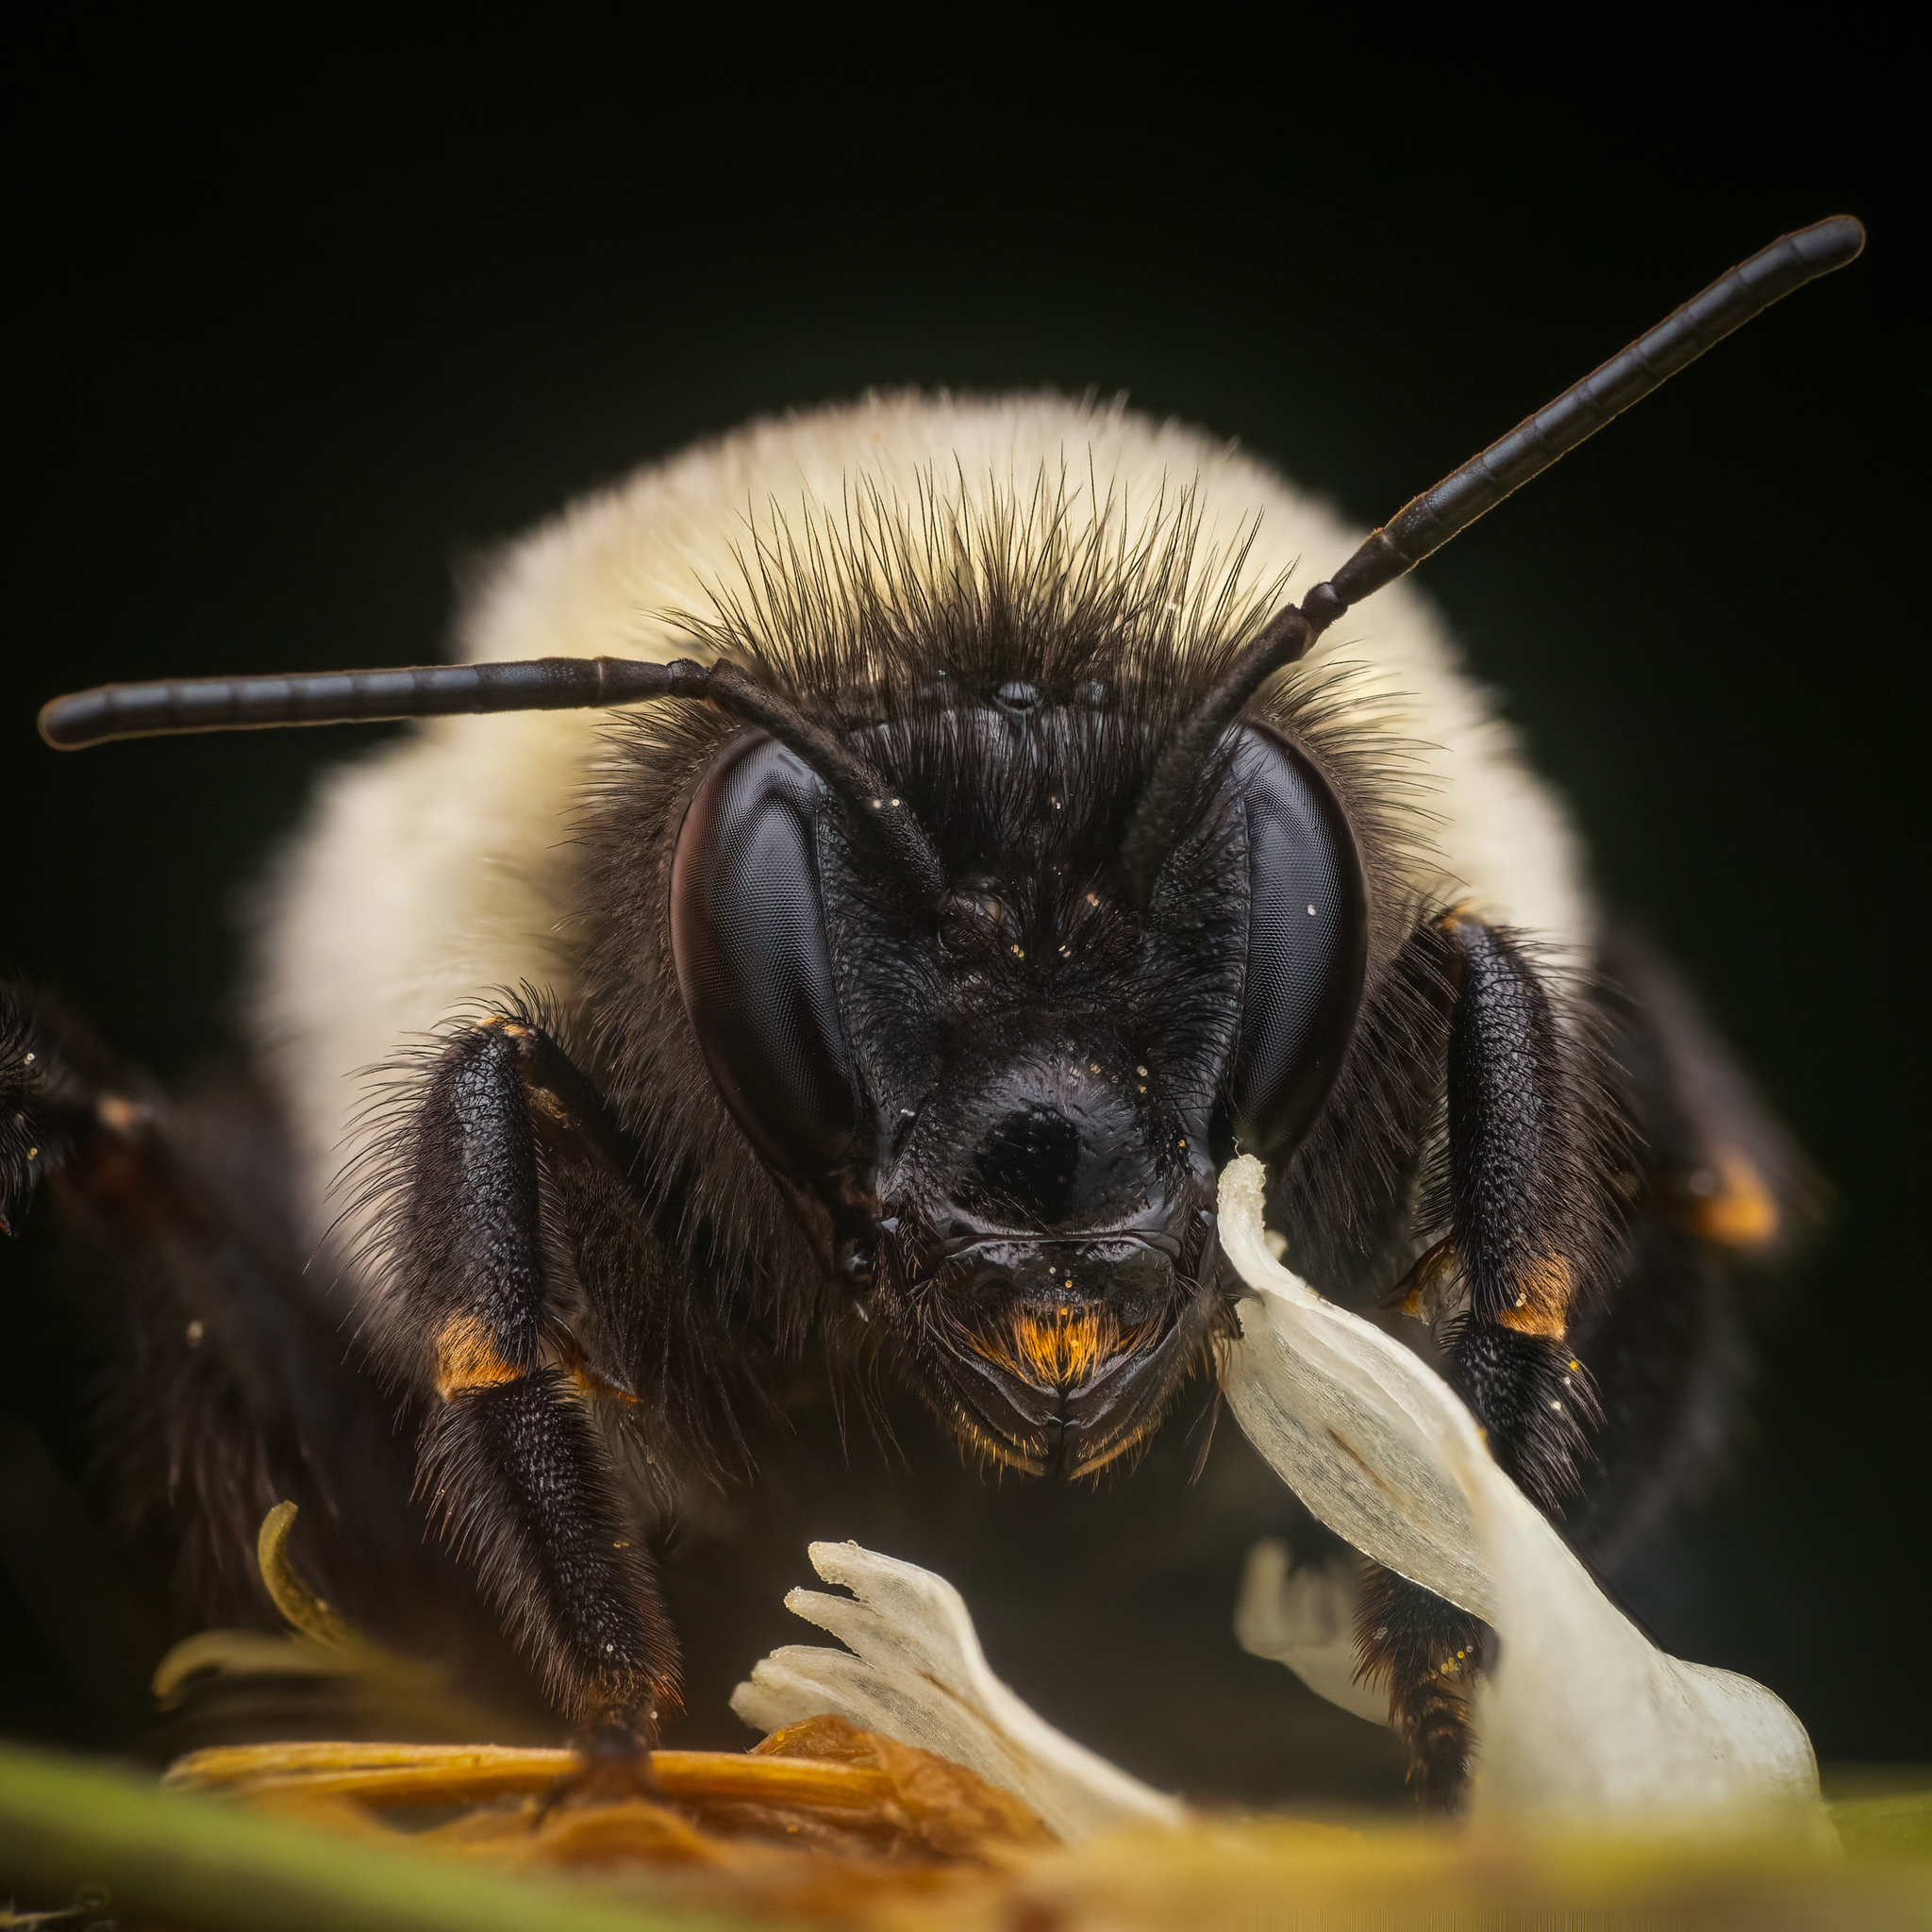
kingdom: Animalia
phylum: Arthropoda
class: Insecta
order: Hymenoptera
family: Apidae
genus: Bombus
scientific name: Bombus
